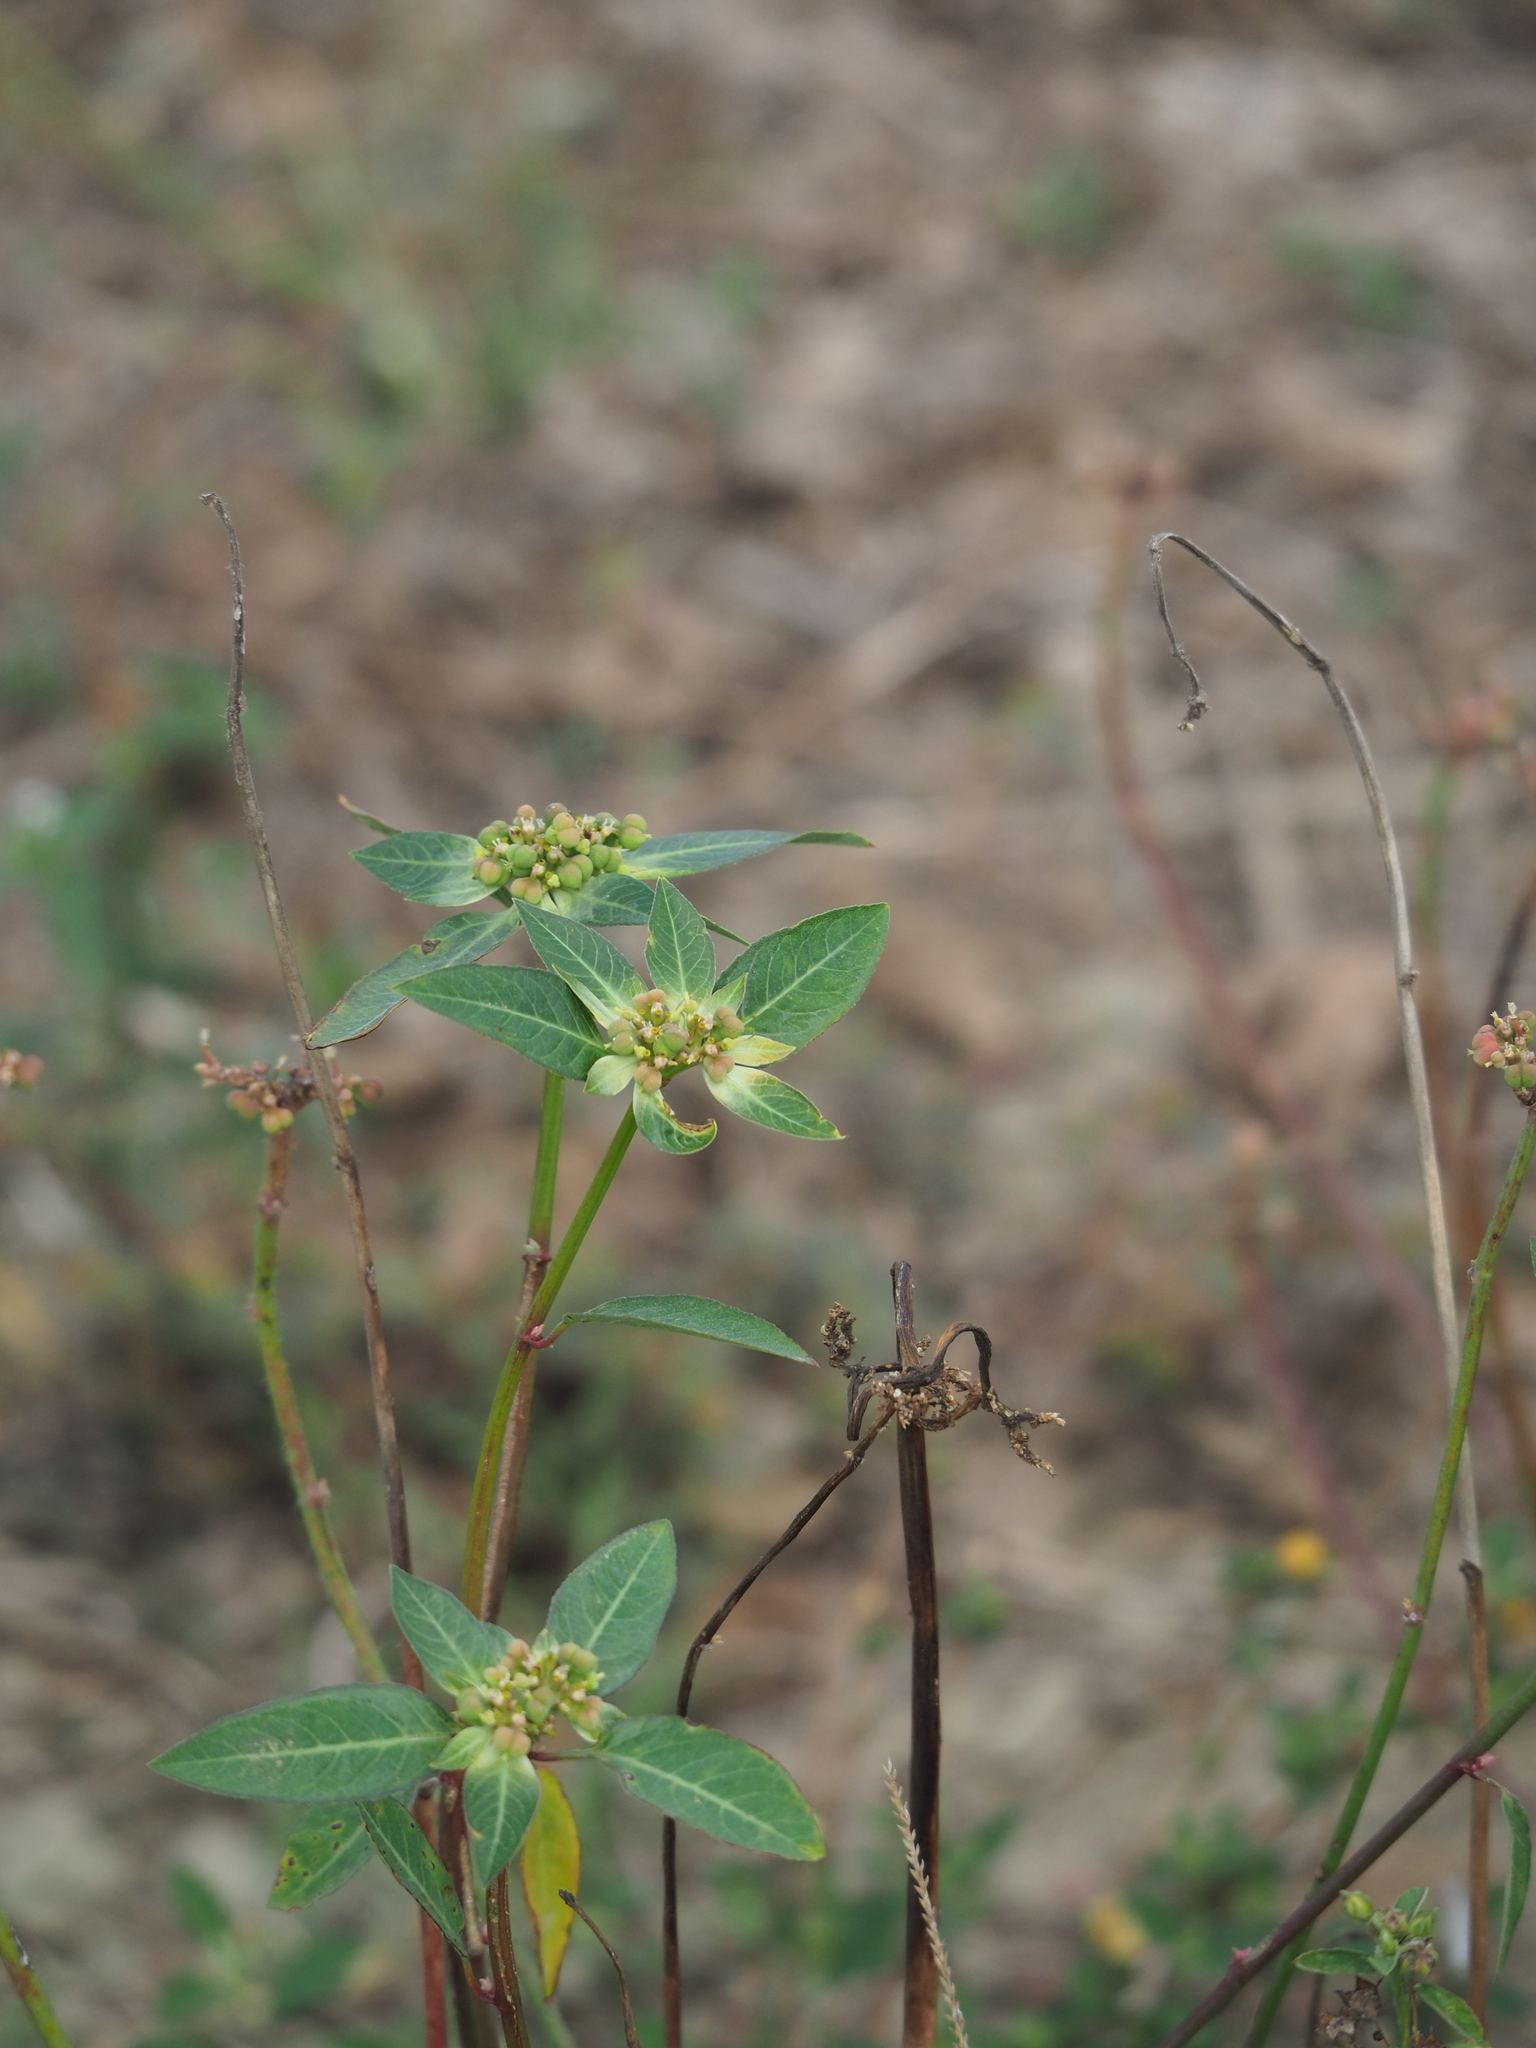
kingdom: Plantae
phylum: Tracheophyta
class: Magnoliopsida
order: Malpighiales
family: Euphorbiaceae
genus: Euphorbia
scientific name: Euphorbia heterophylla
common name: Mexican fireplant
